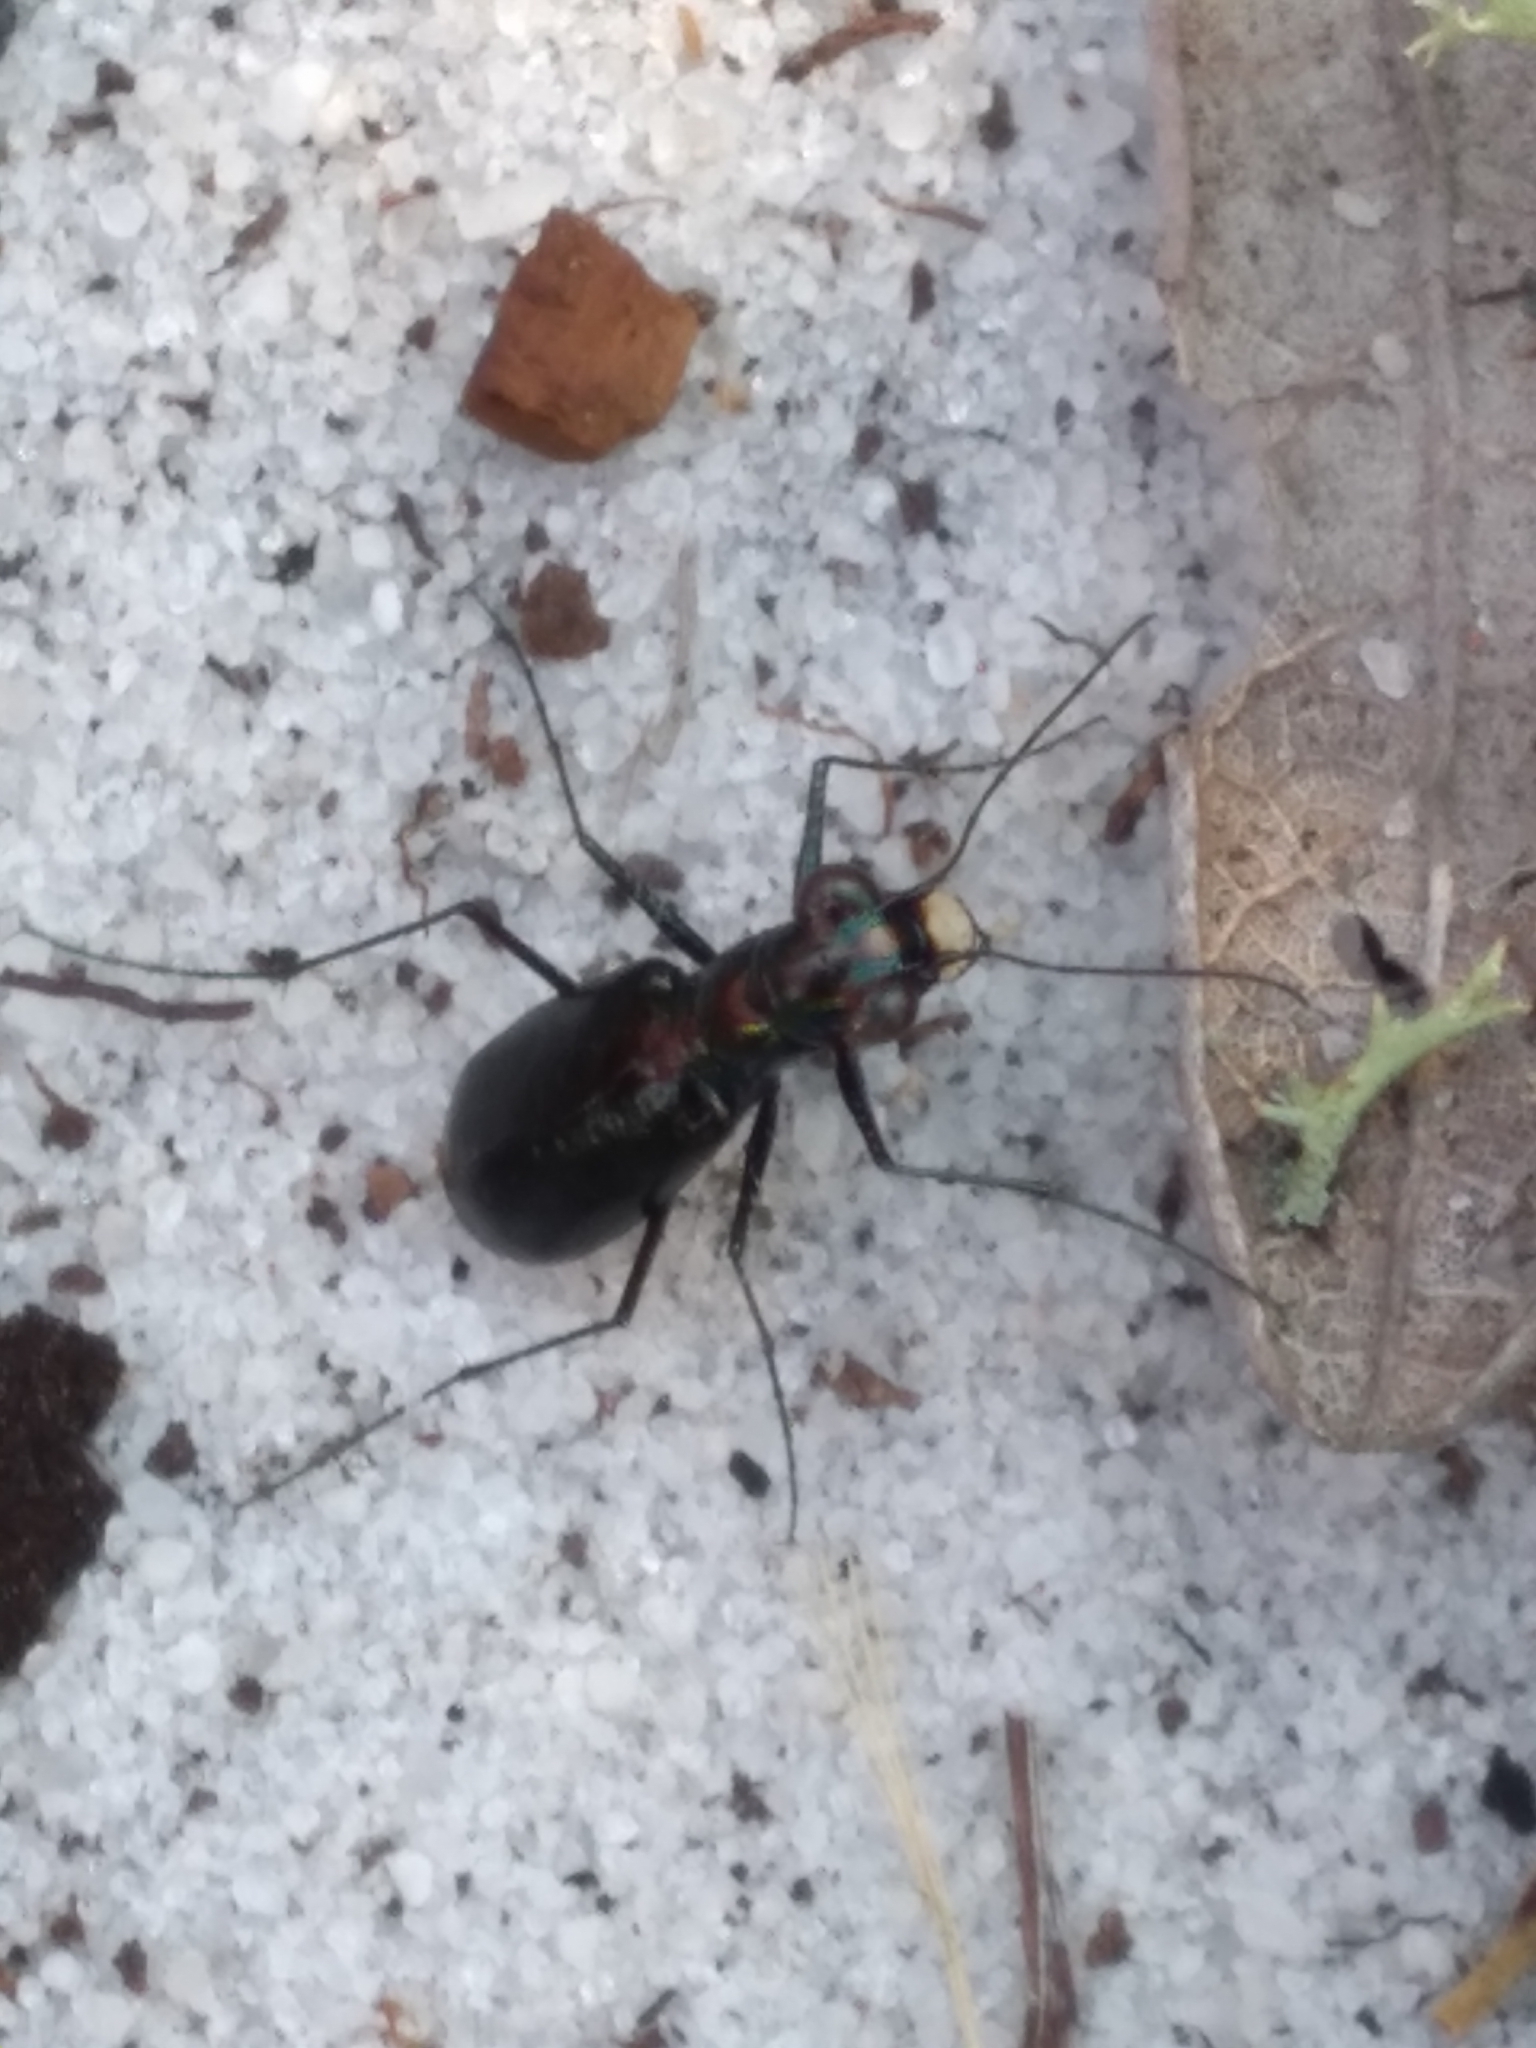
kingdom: Animalia
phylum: Arthropoda
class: Insecta
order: Coleoptera
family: Carabidae
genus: Cicindela
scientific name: Cicindela highlandensis
